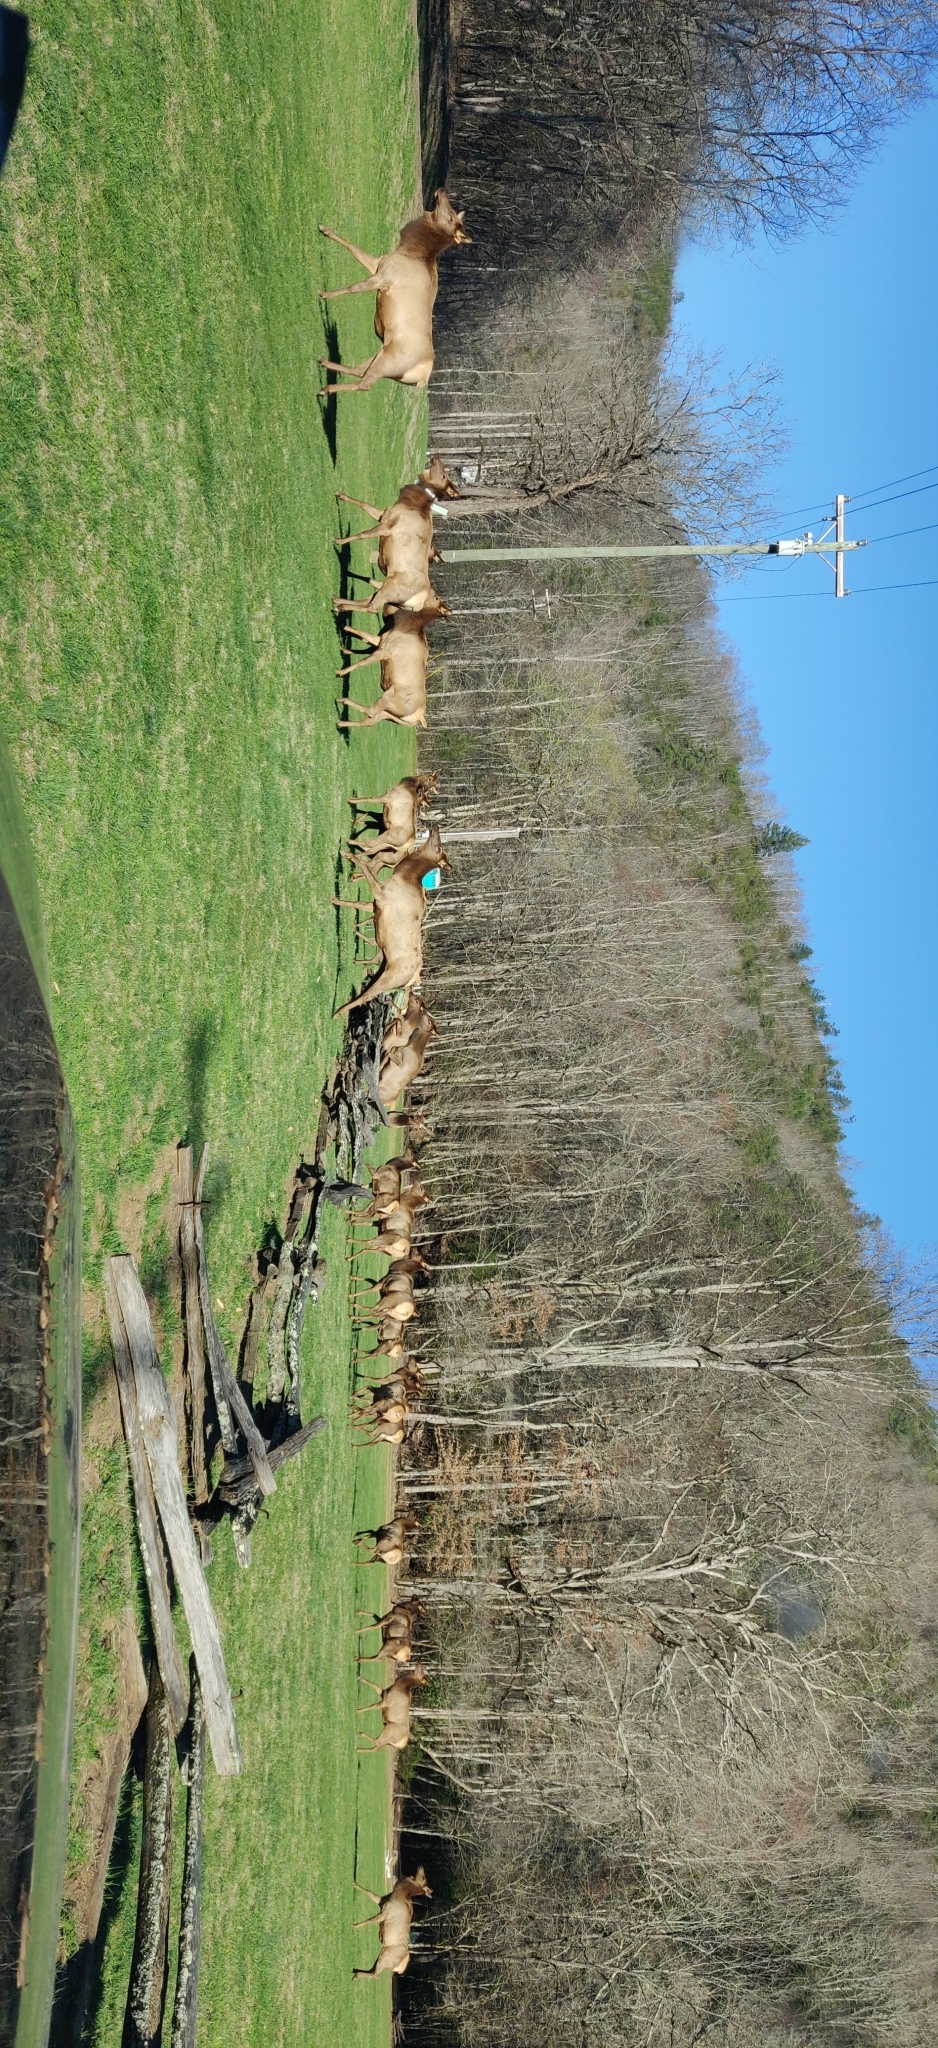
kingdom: Animalia
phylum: Chordata
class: Mammalia
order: Artiodactyla
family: Cervidae
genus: Cervus
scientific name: Cervus elaphus
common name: Red deer
